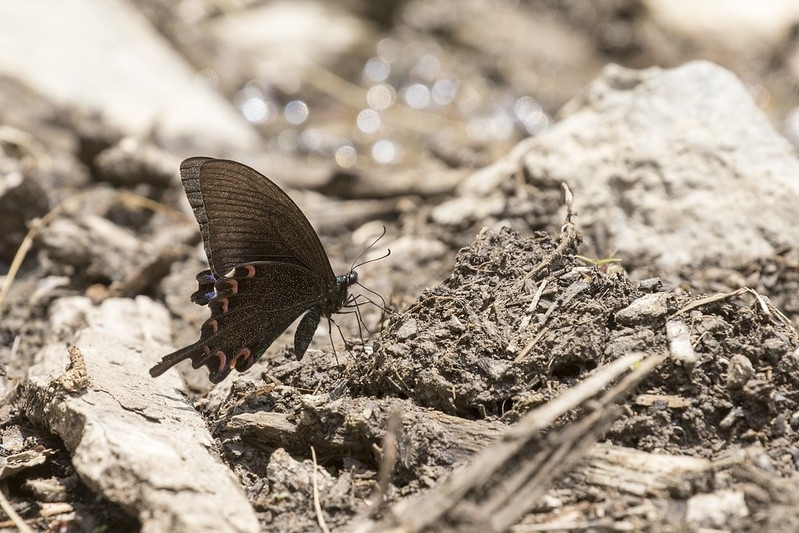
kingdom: Animalia
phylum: Arthropoda
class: Insecta
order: Lepidoptera
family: Papilionidae
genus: Papilio
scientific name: Papilio paris
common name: Paris peacock
